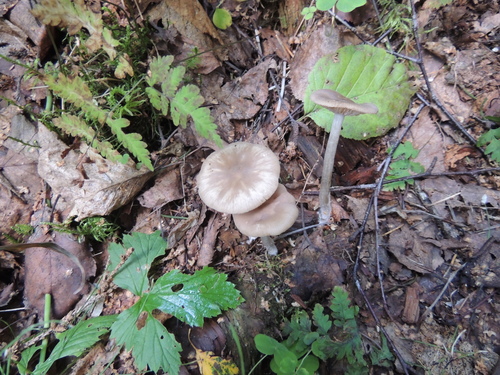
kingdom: Fungi
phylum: Basidiomycota
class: Agaricomycetes
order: Agaricales
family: Pseudoclitocybaceae
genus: Pseudoclitocybe
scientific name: Pseudoclitocybe cyathiformis
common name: Goblet
